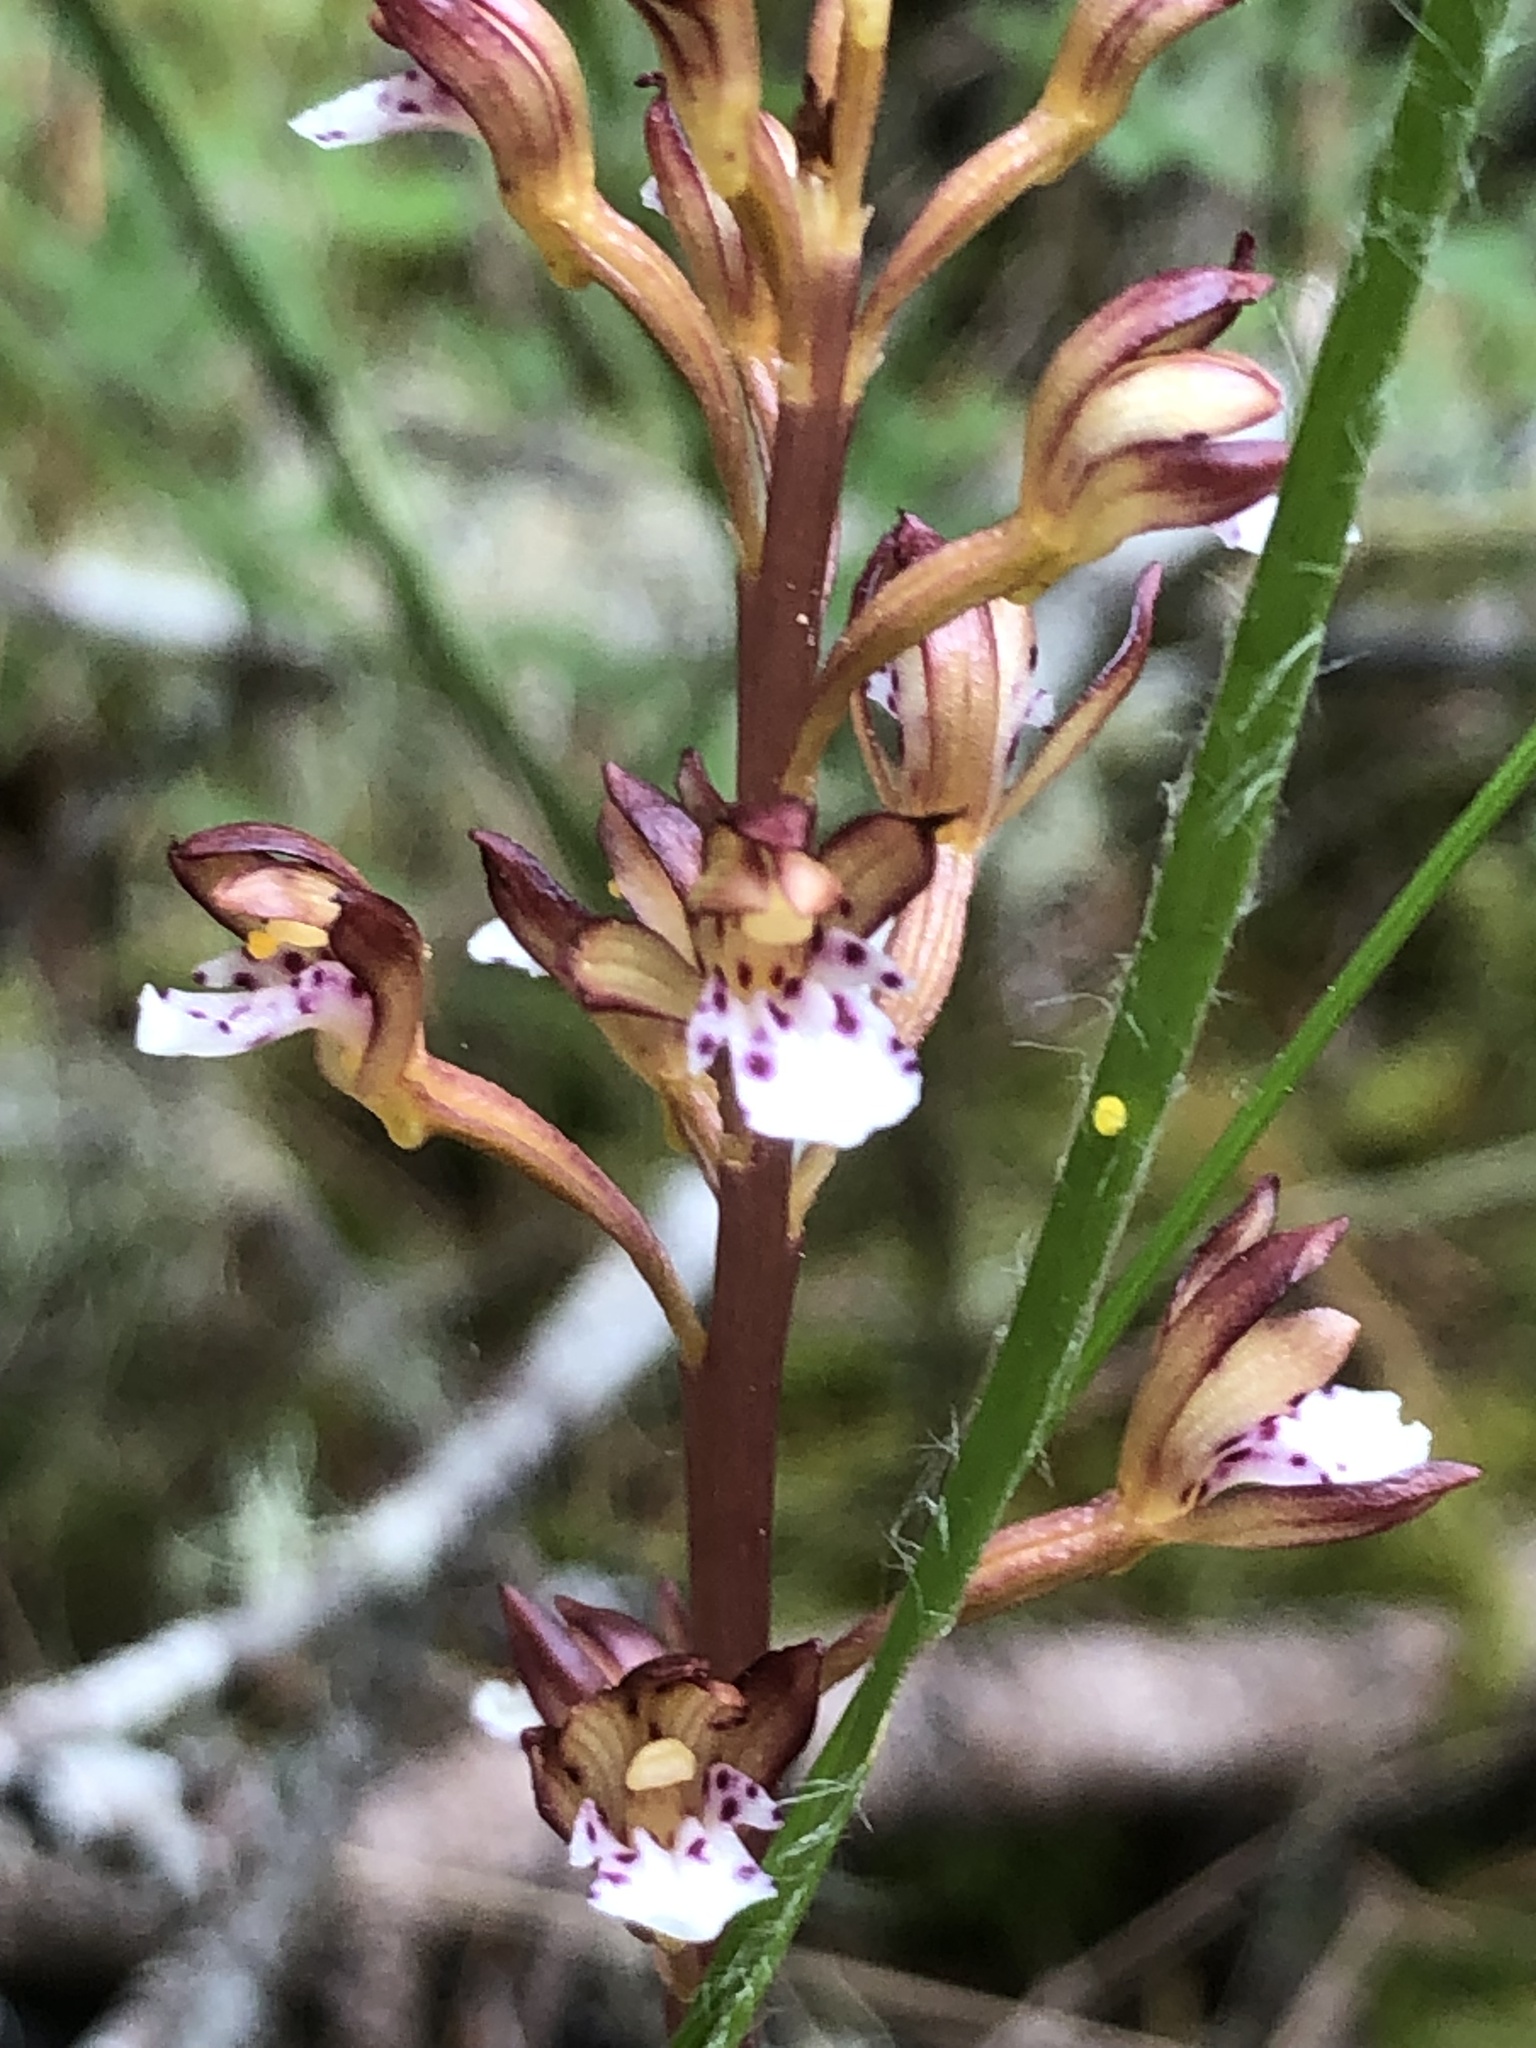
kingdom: Plantae
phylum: Tracheophyta
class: Liliopsida
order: Asparagales
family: Orchidaceae
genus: Corallorhiza
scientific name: Corallorhiza maculata
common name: Spotted coralroot
